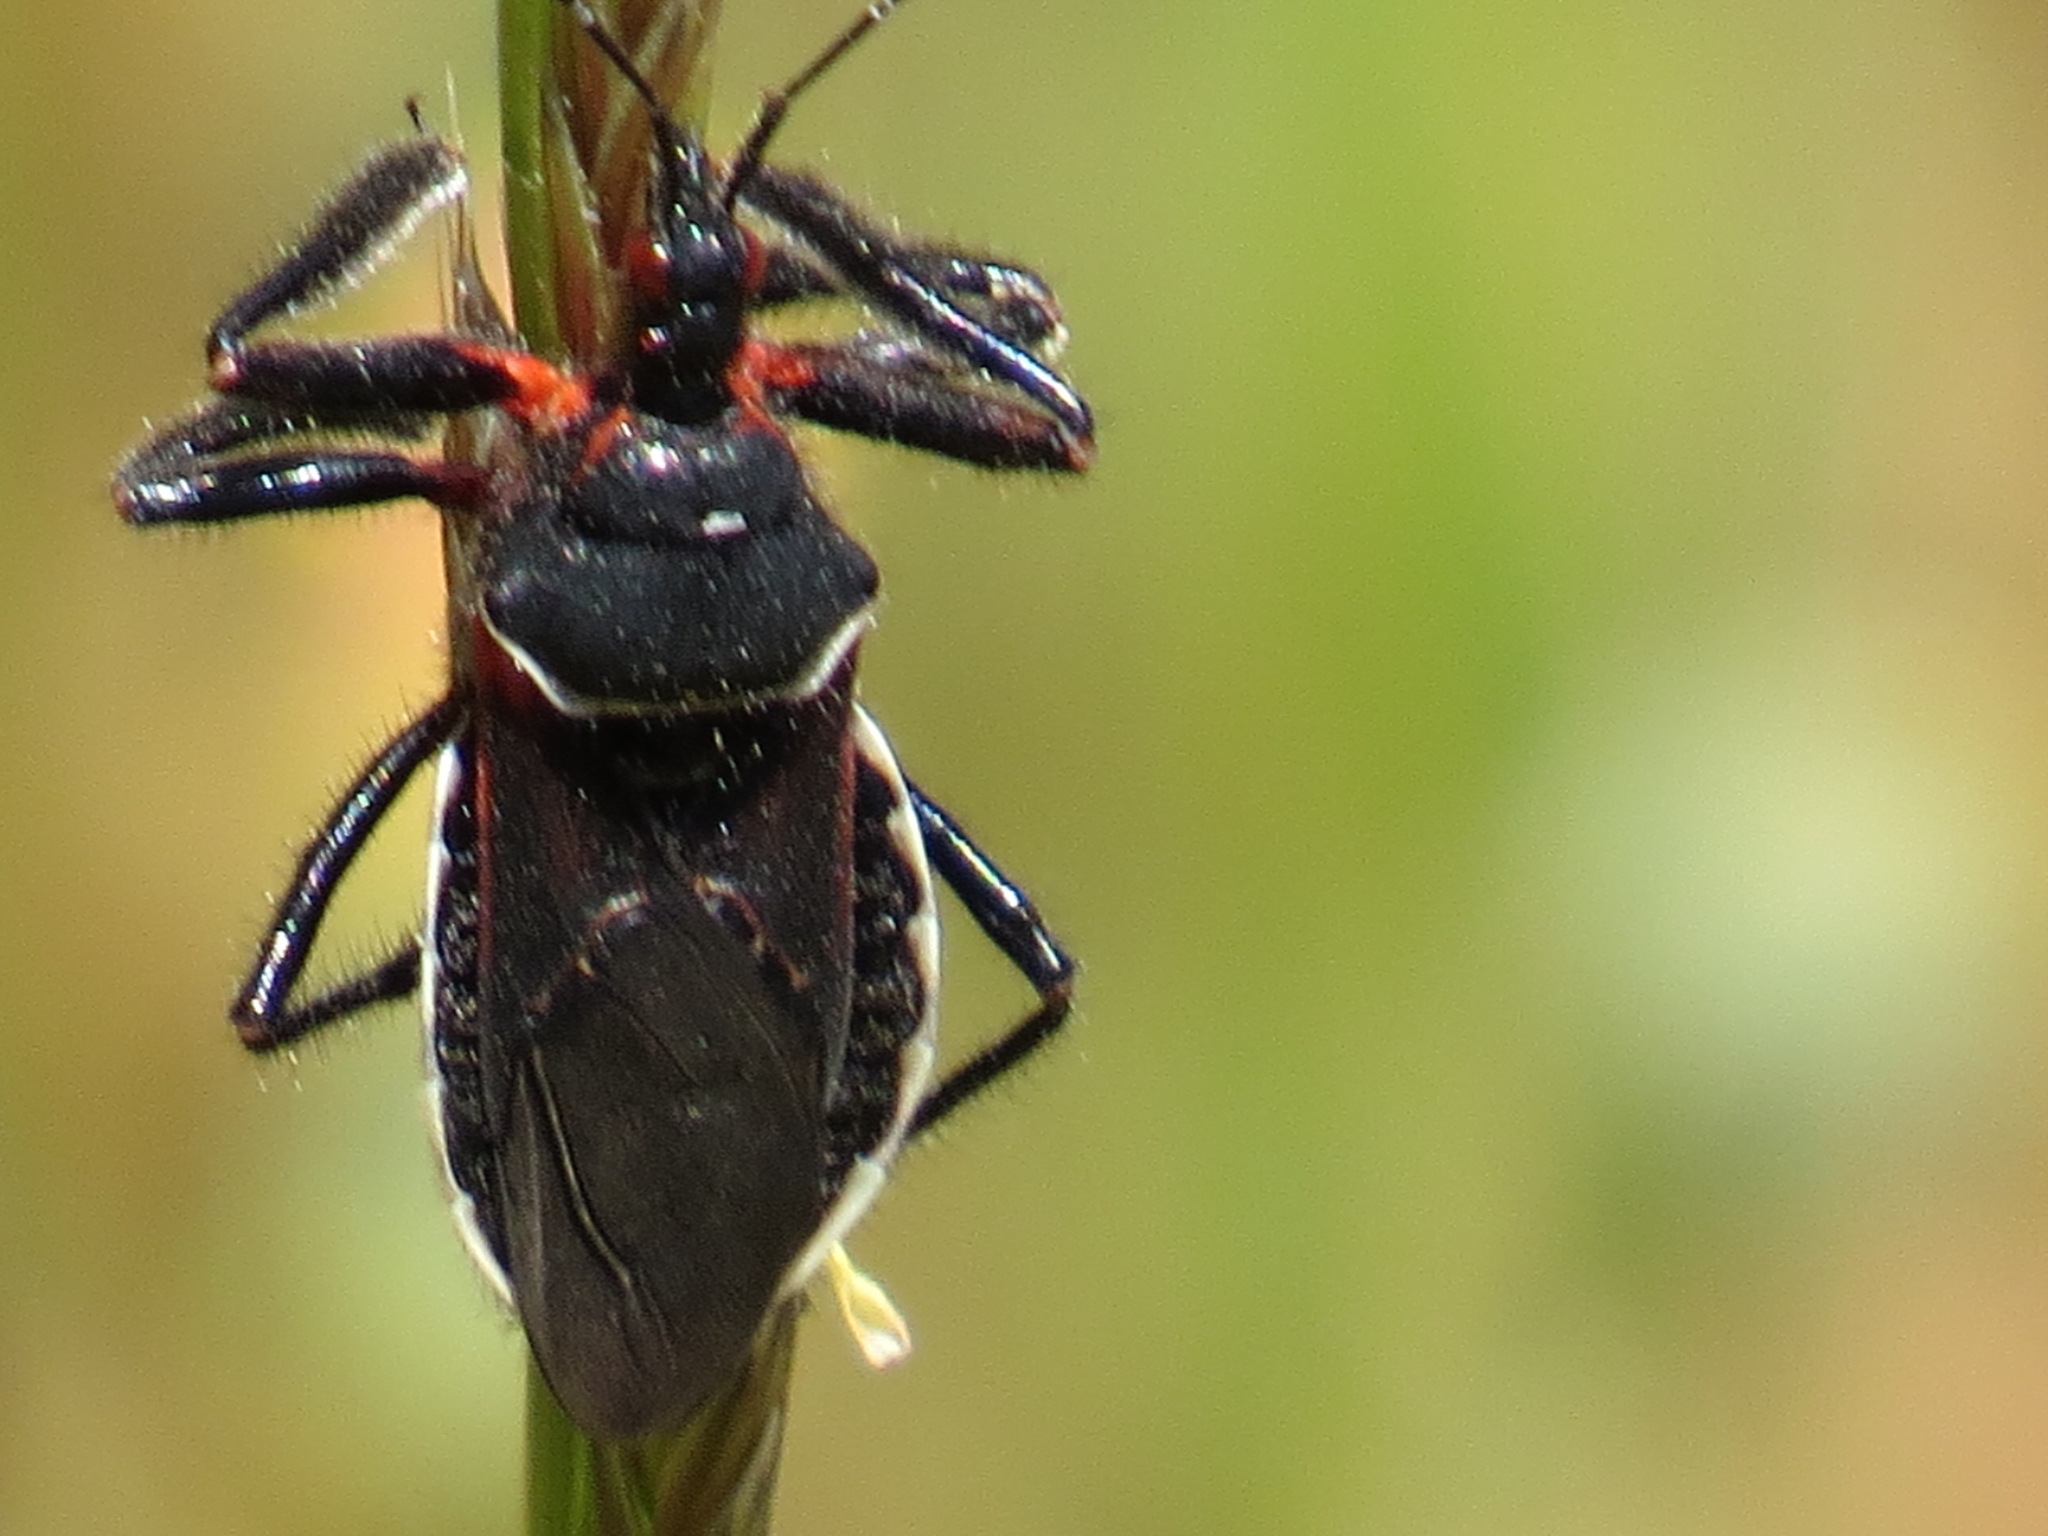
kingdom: Animalia
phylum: Arthropoda
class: Insecta
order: Hemiptera
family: Reduviidae
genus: Apiomerus
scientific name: Apiomerus californicus
